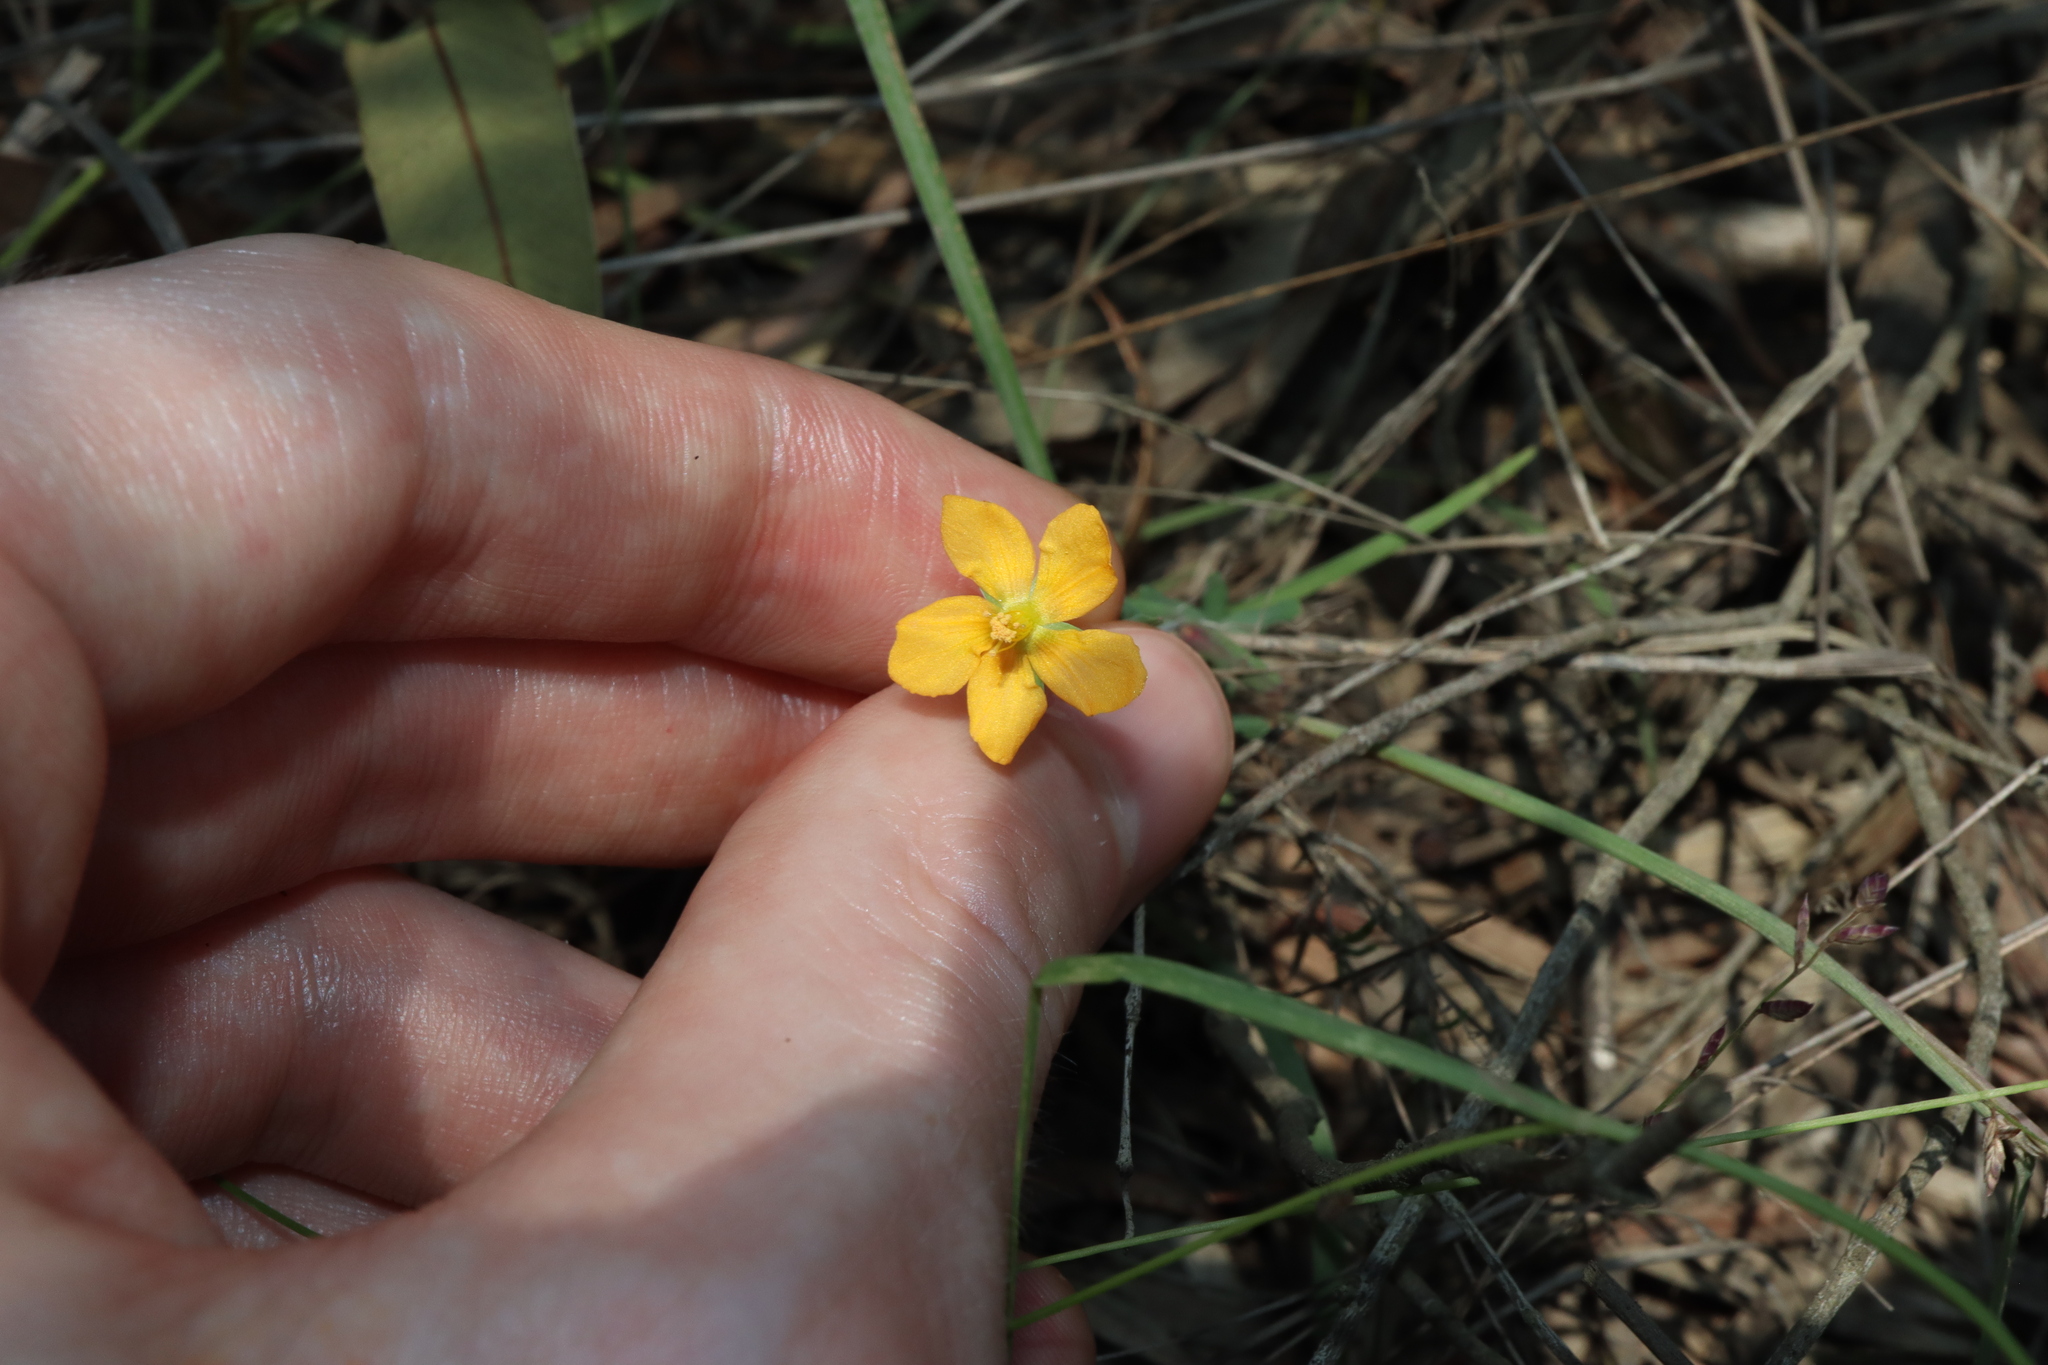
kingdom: Plantae
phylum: Tracheophyta
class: Magnoliopsida
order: Malpighiales
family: Hypericaceae
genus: Hypericum
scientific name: Hypericum gramineum
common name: Grassy st. johnswort
